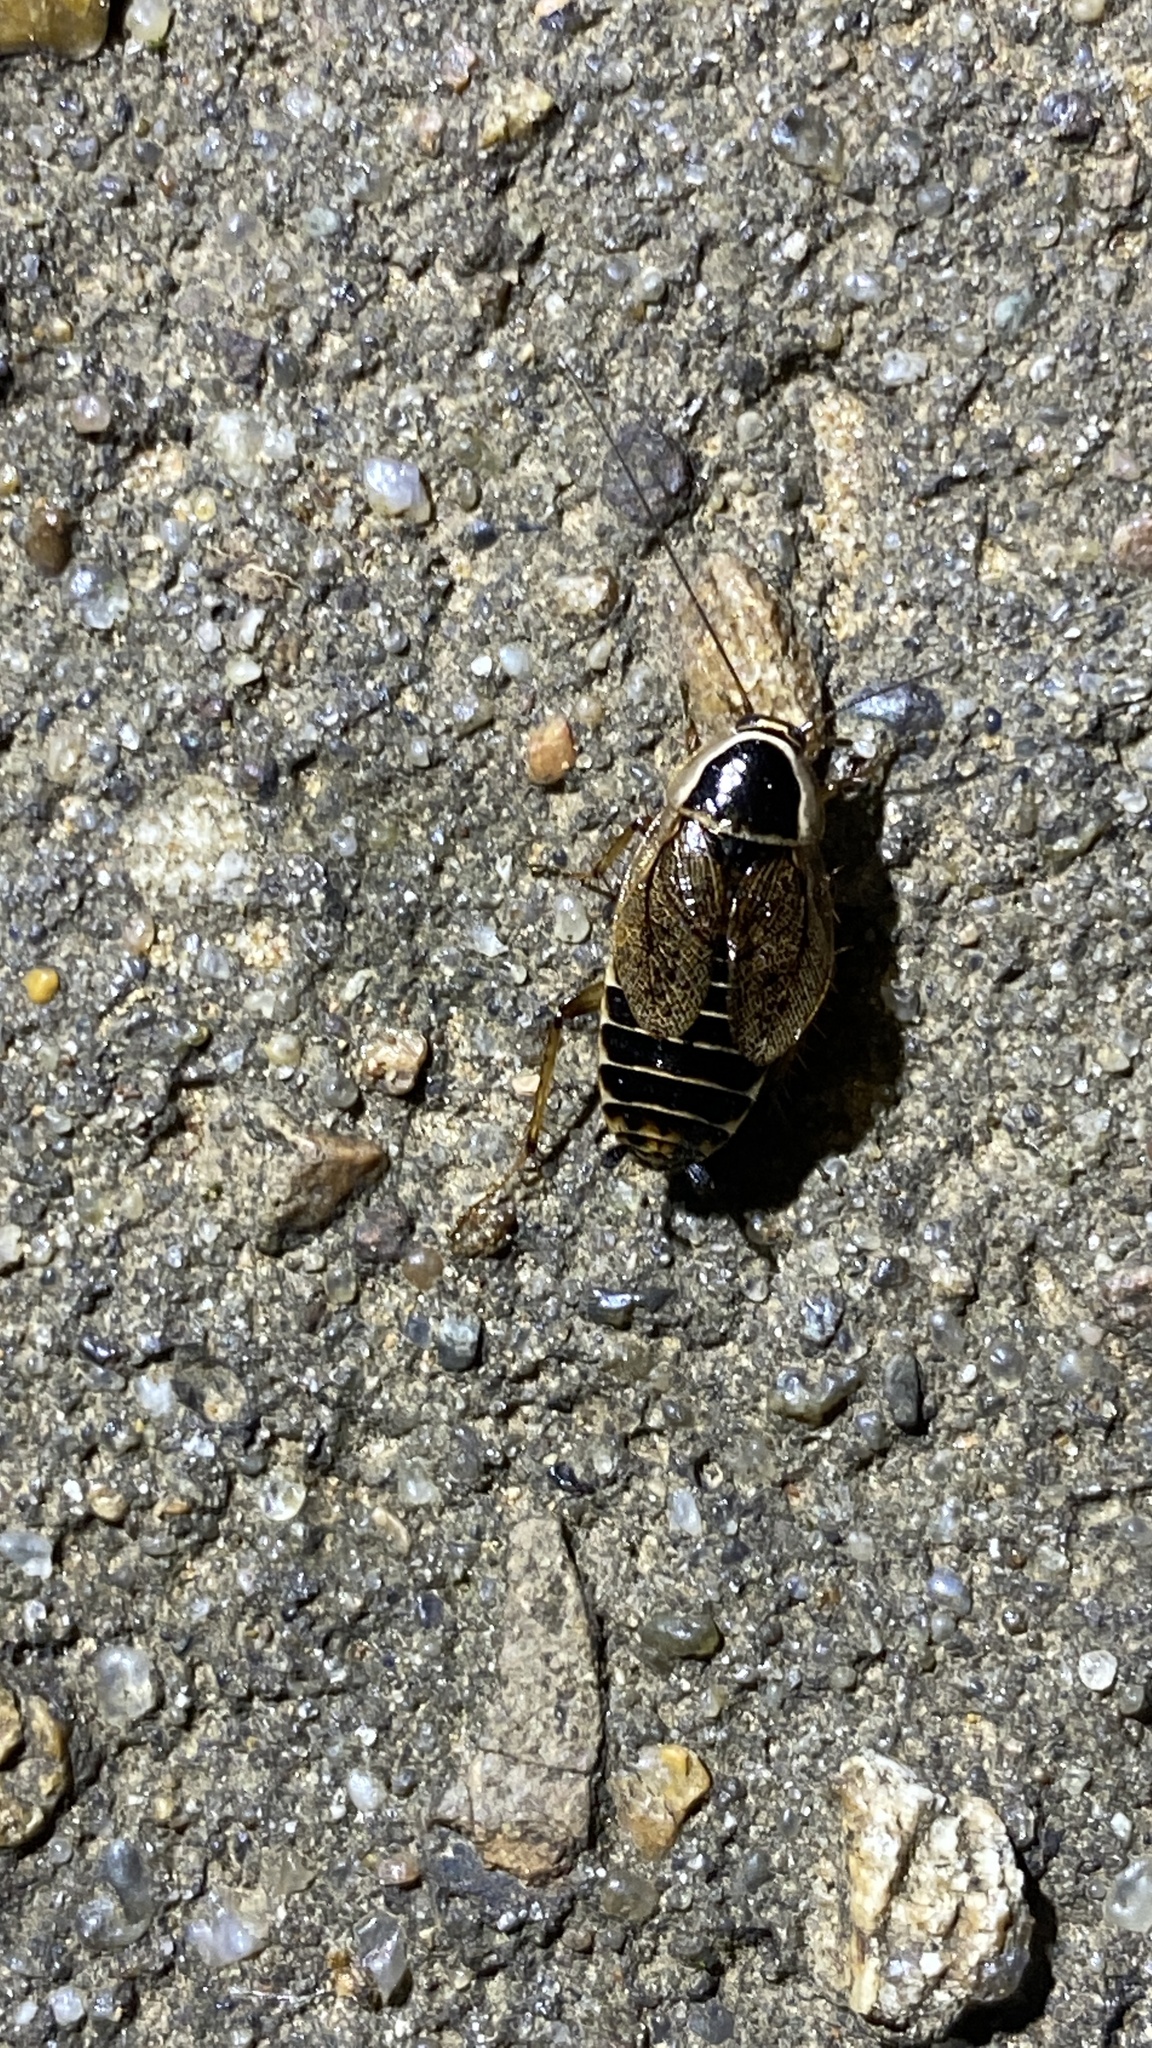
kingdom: Animalia
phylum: Arthropoda
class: Insecta
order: Blattodea
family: Ectobiidae
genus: Ectobius
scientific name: Ectobius sylvestris
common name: Forest cockroach
